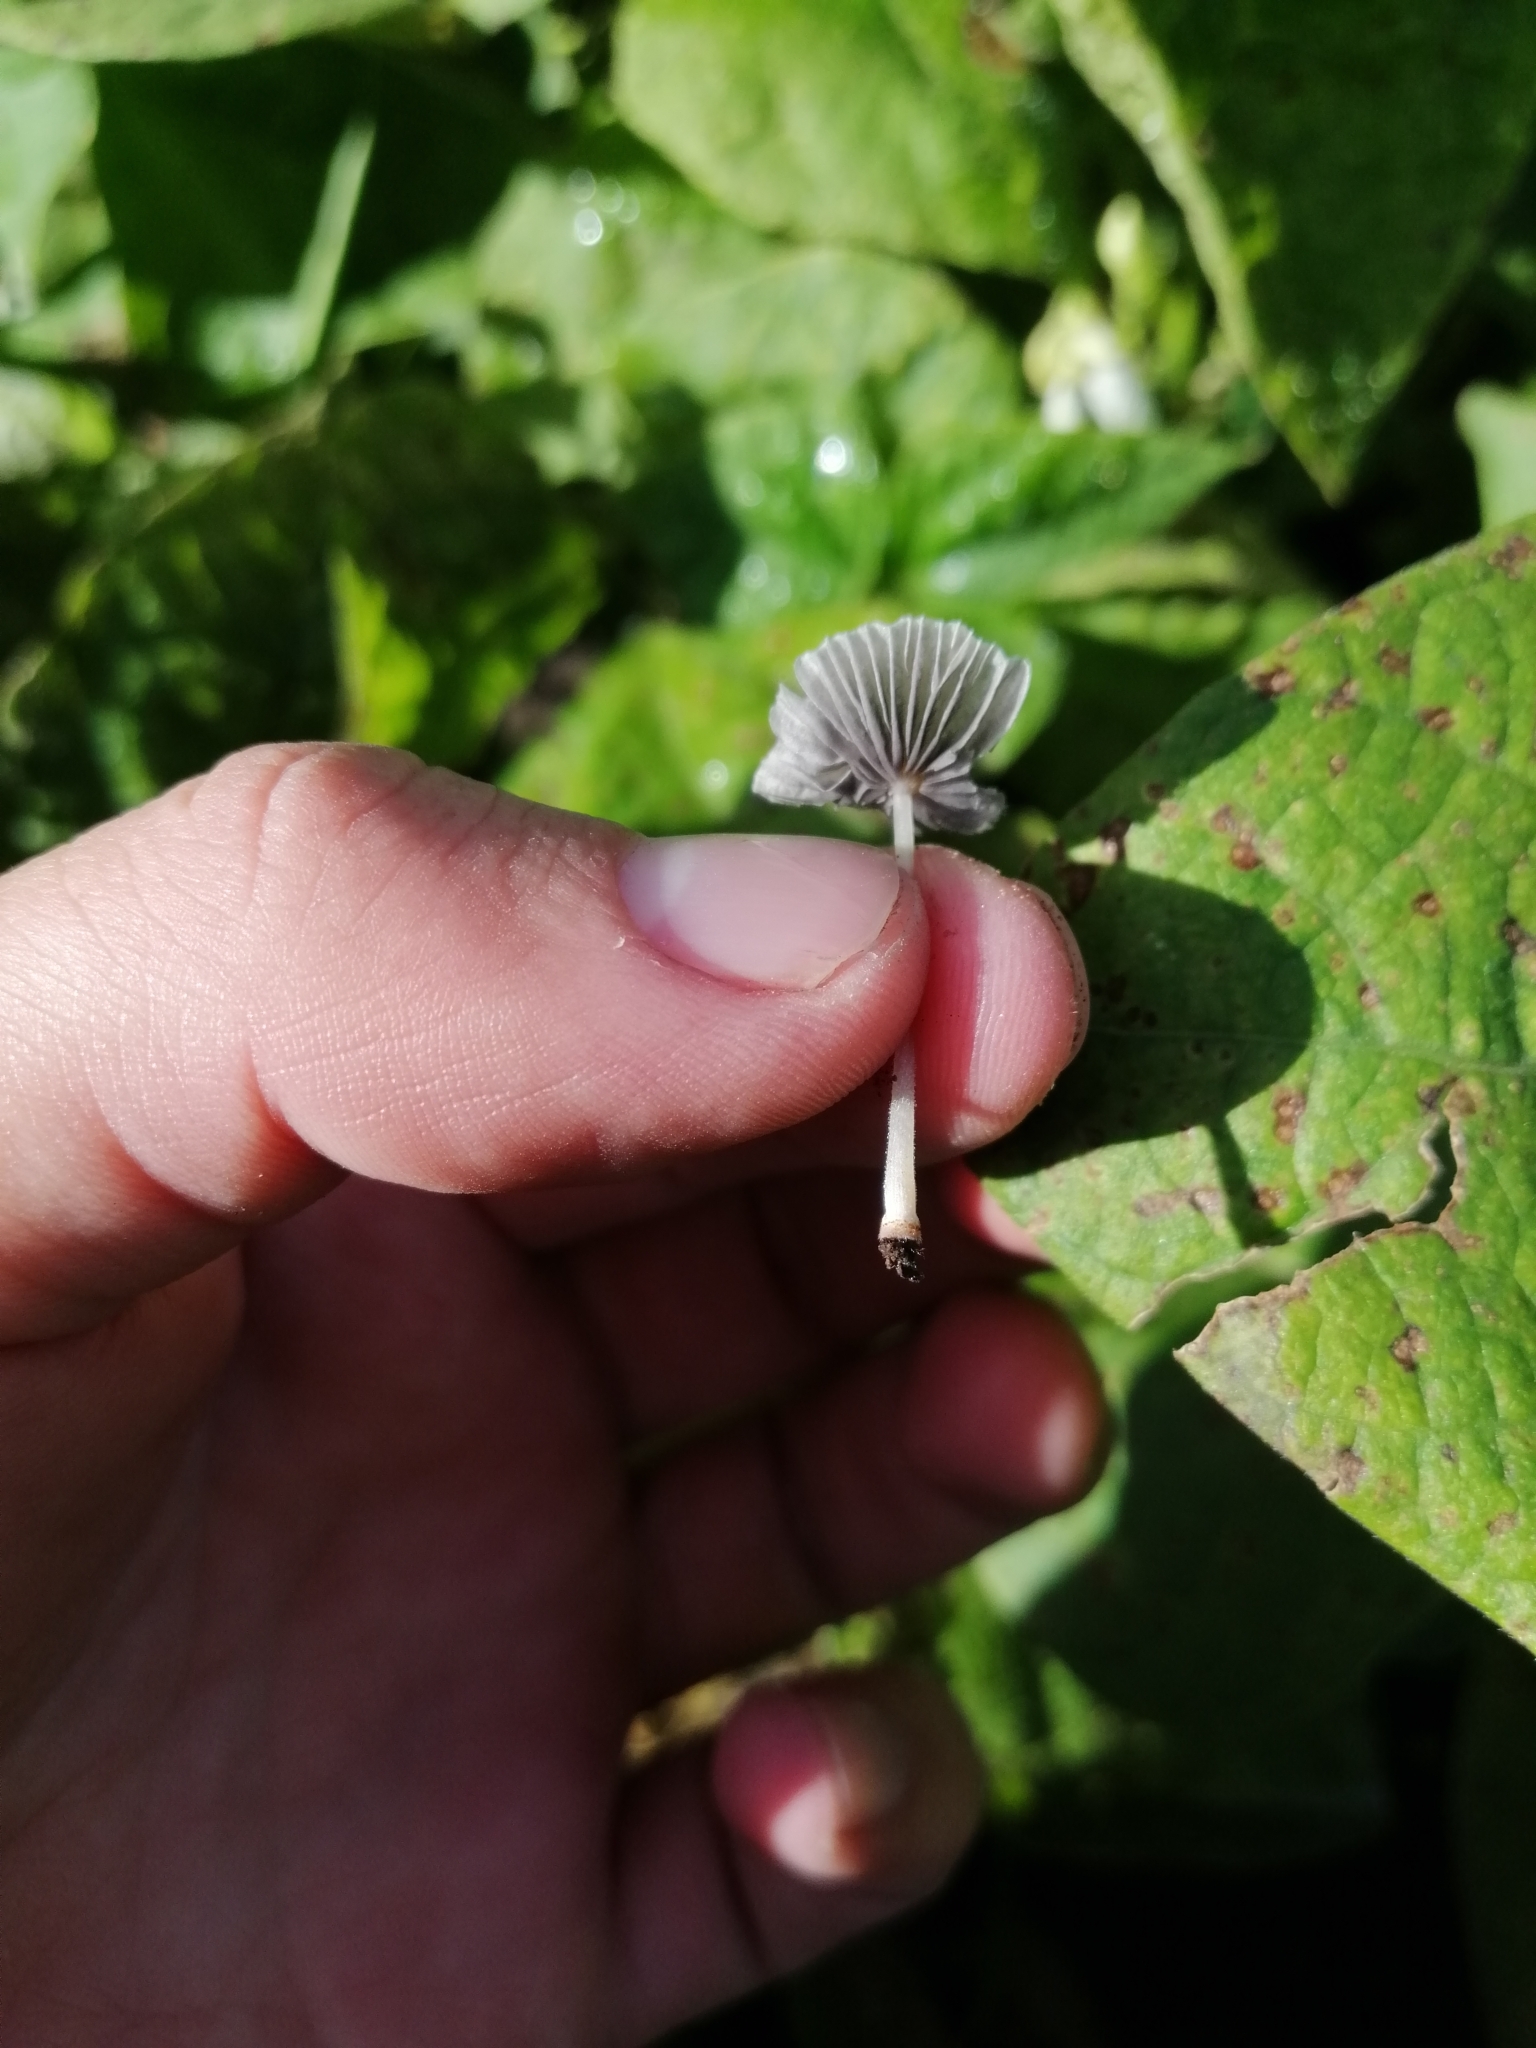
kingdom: Fungi
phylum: Basidiomycota
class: Agaricomycetes
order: Agaricales
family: Psathyrellaceae
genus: Coprinellus
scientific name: Coprinellus curtoides
